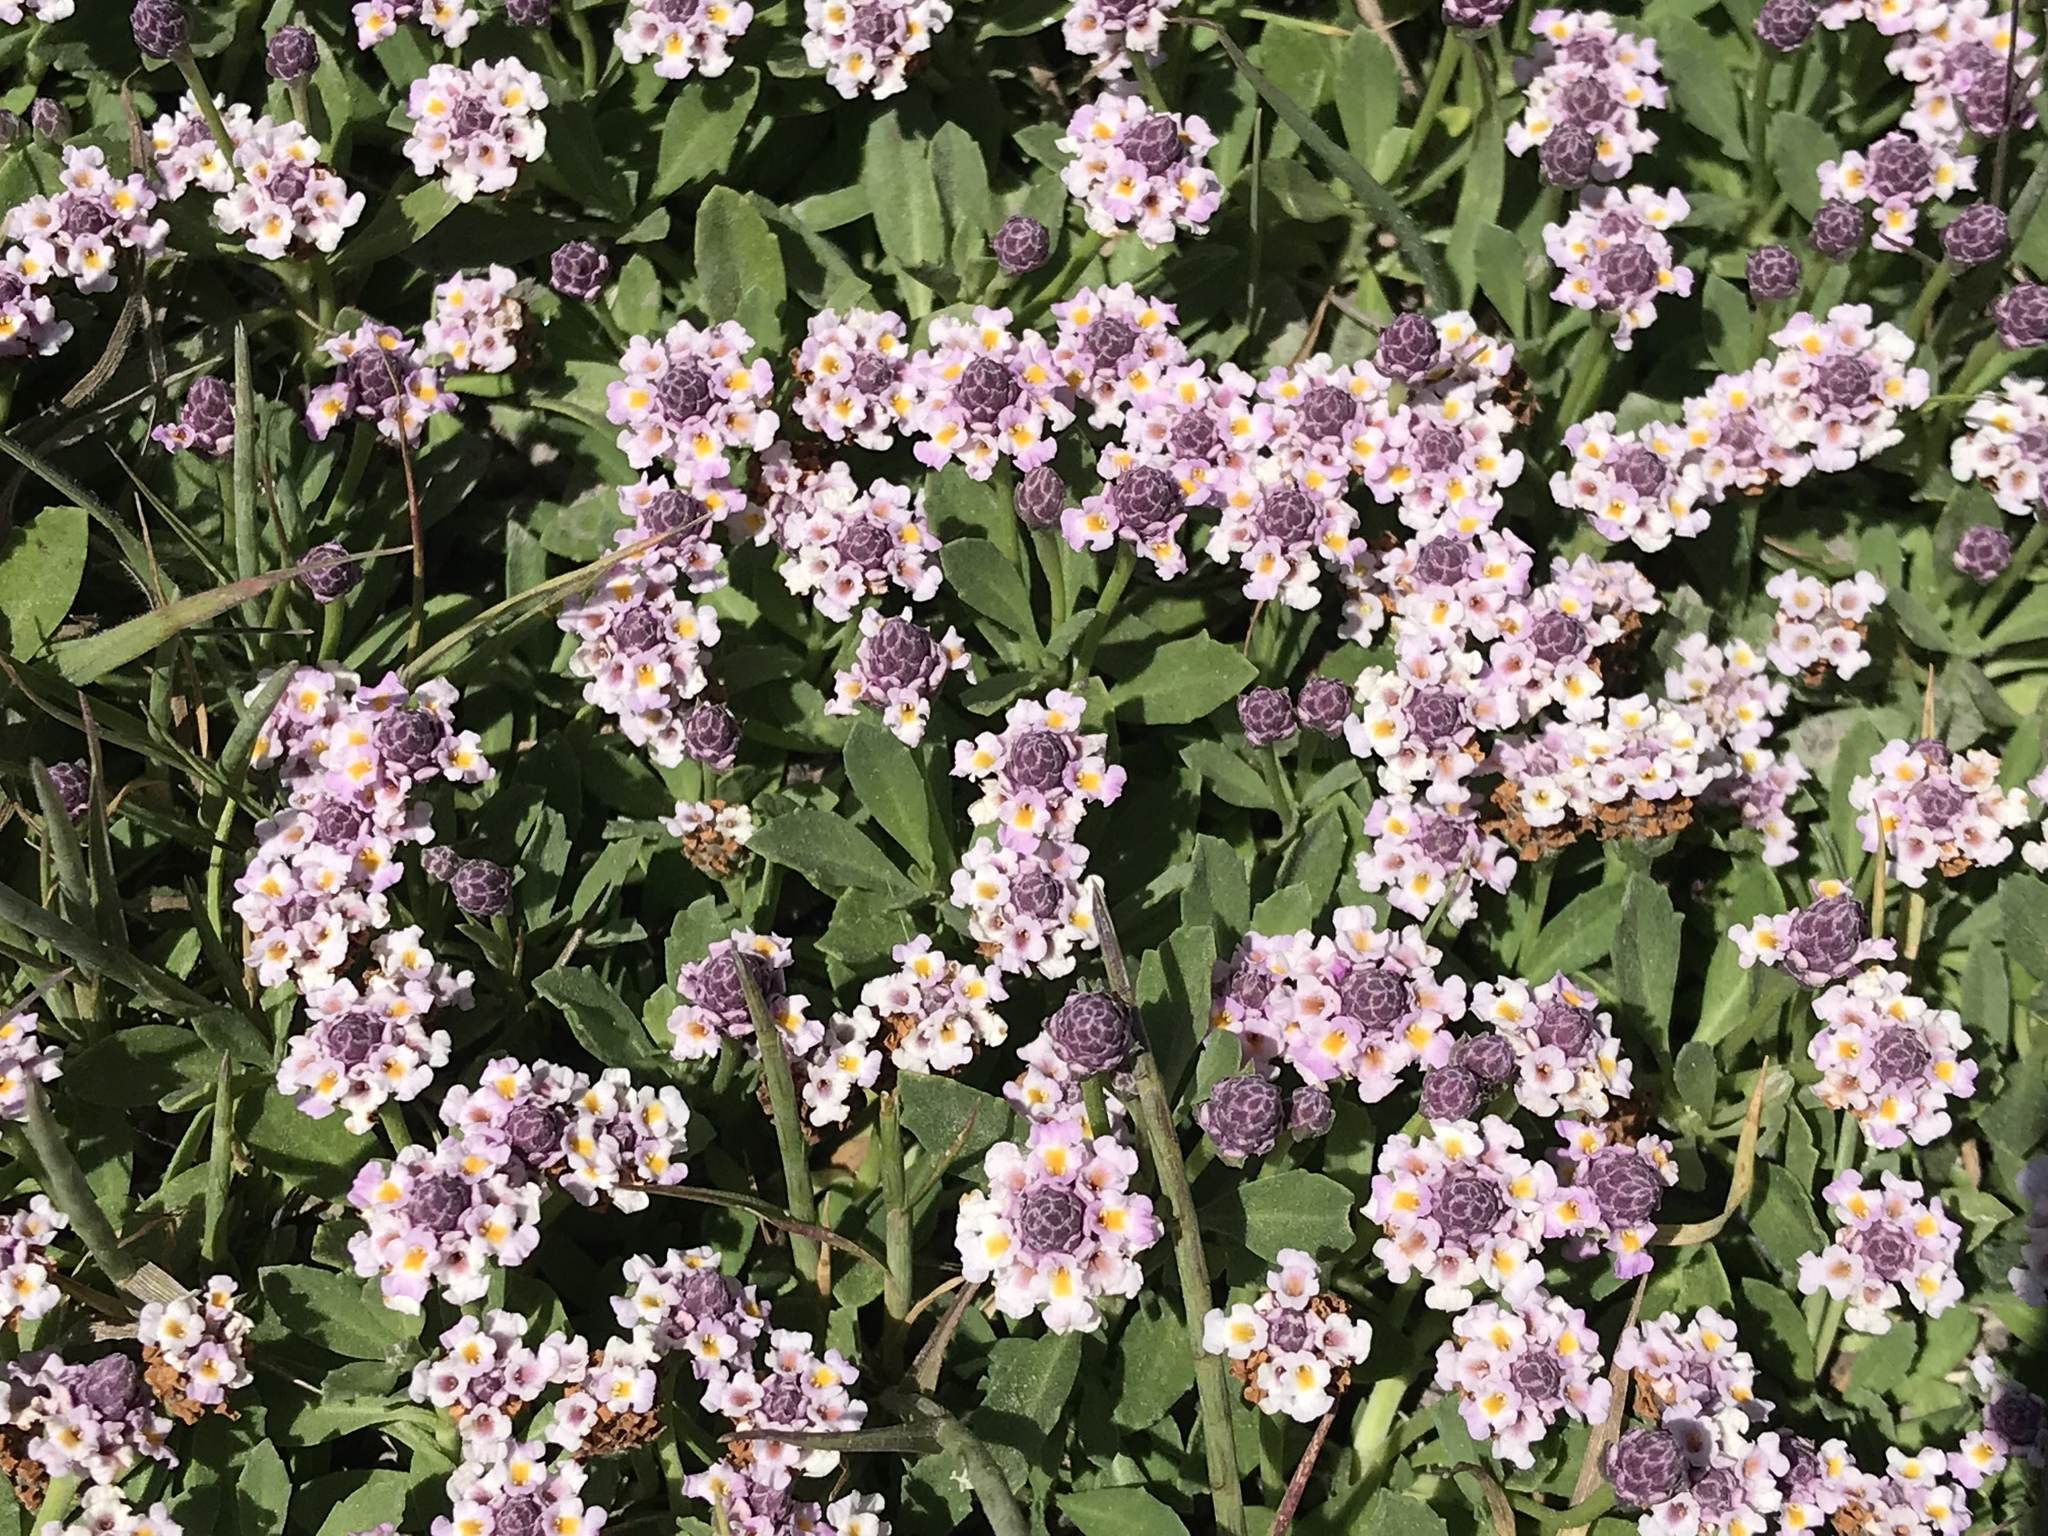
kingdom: Plantae
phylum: Tracheophyta
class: Magnoliopsida
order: Lamiales
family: Verbenaceae
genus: Phyla
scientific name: Phyla nodiflora
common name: Frogfruit
